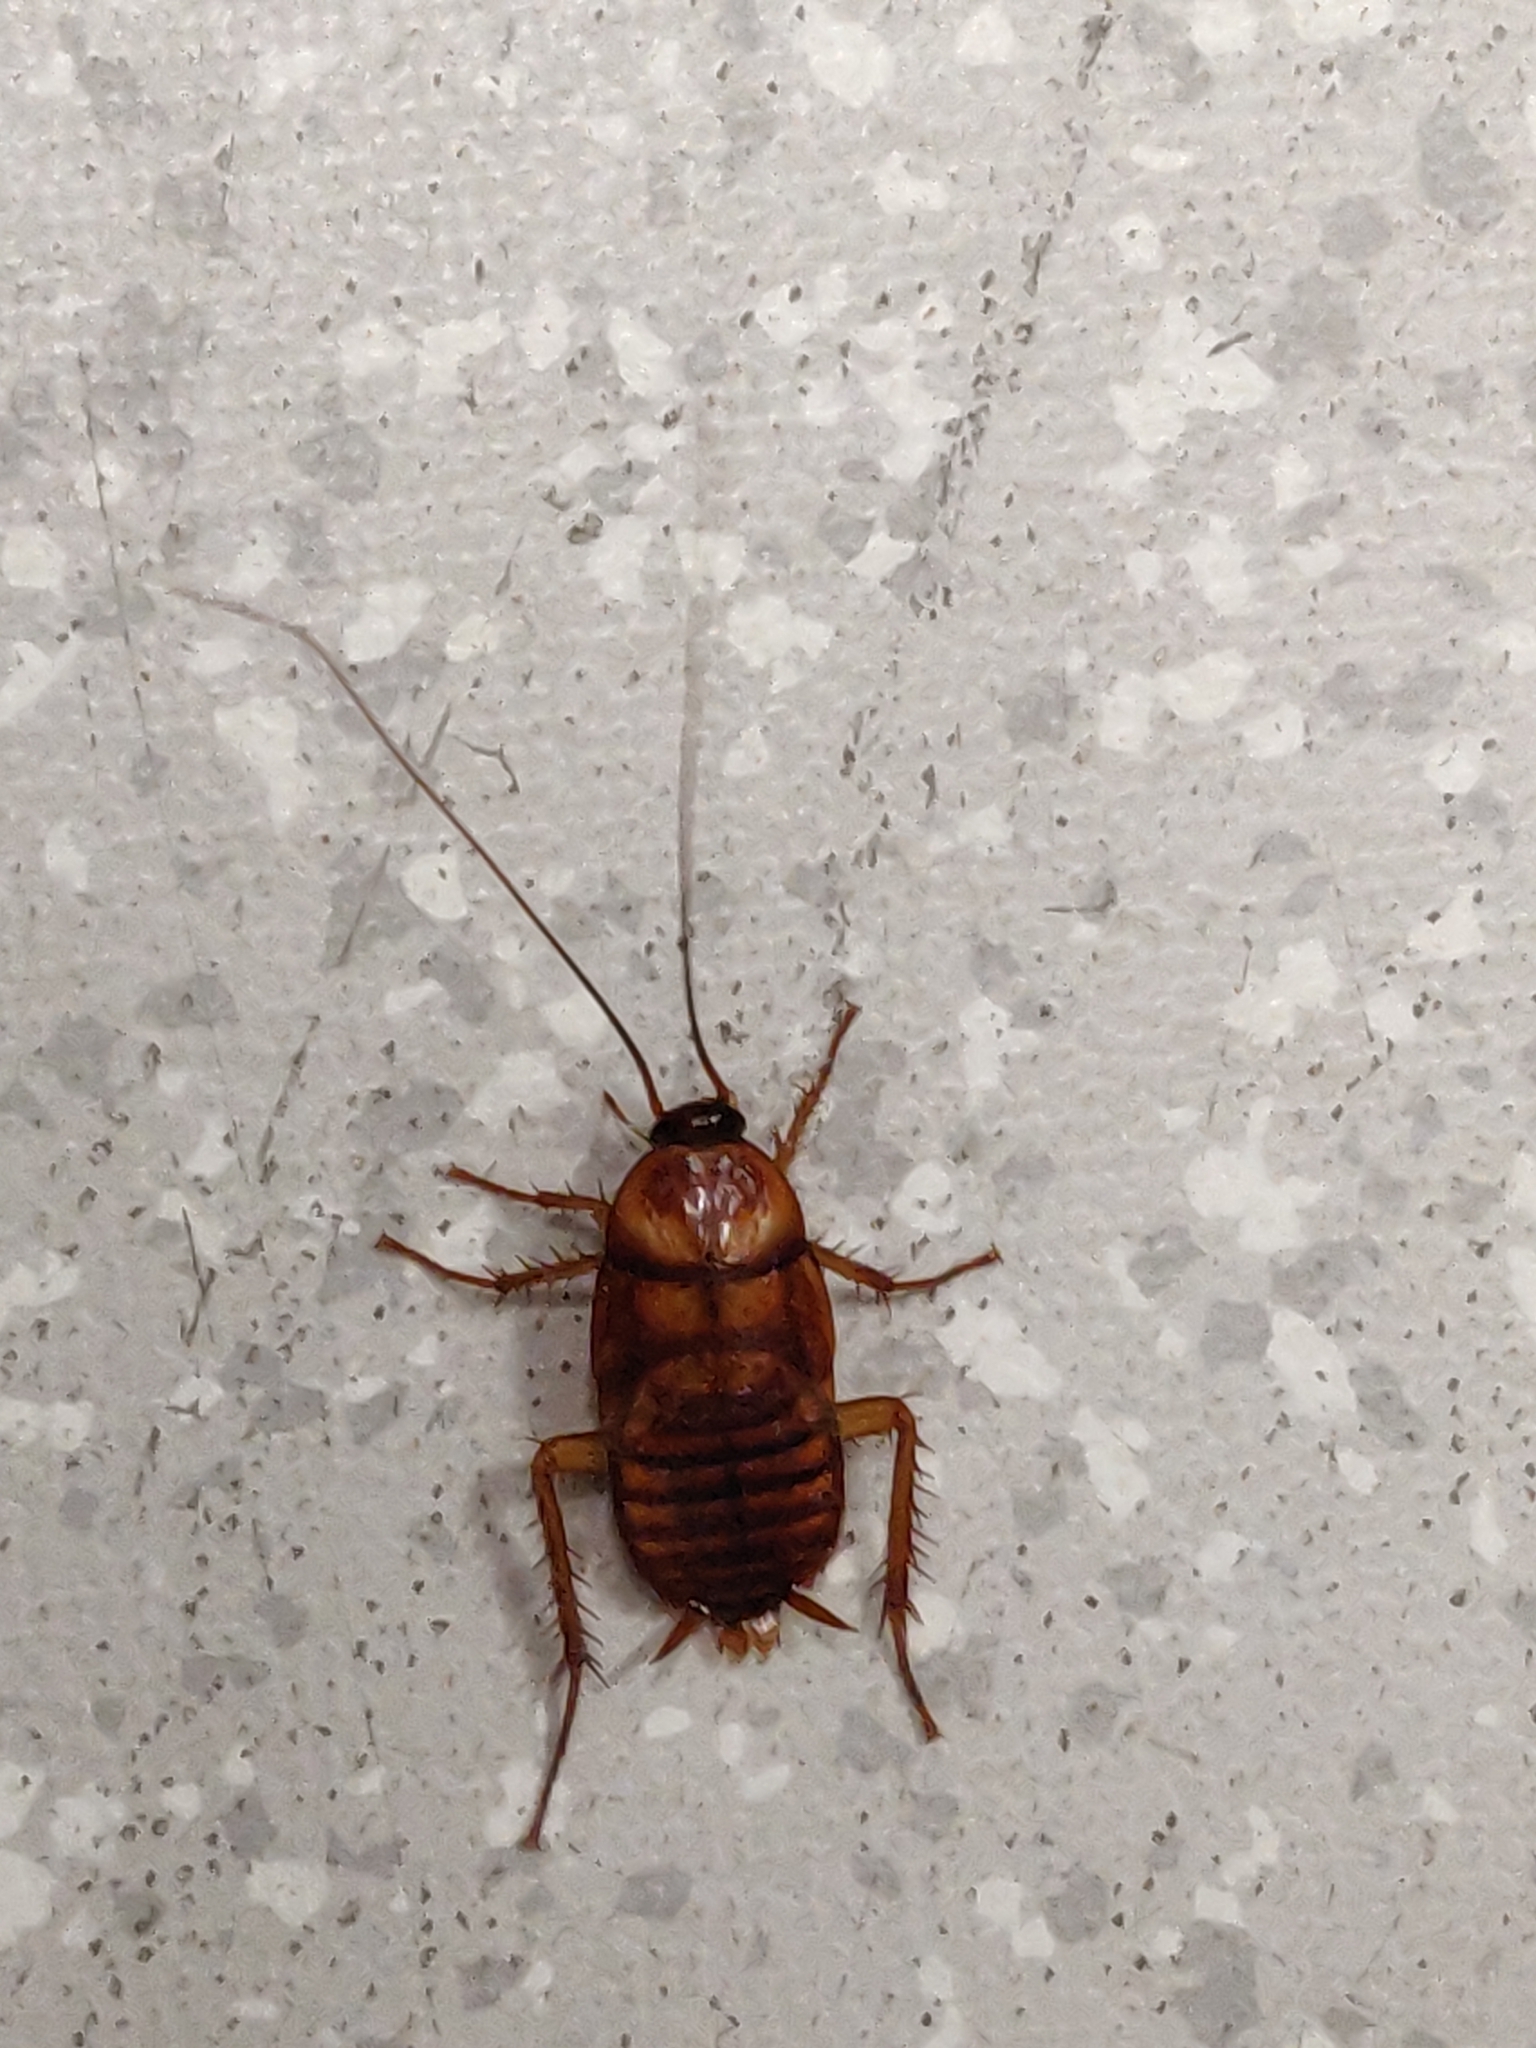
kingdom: Animalia
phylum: Arthropoda
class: Insecta
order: Blattodea
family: Blattidae
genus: Periplaneta
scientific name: Periplaneta americana
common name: American cockroach
